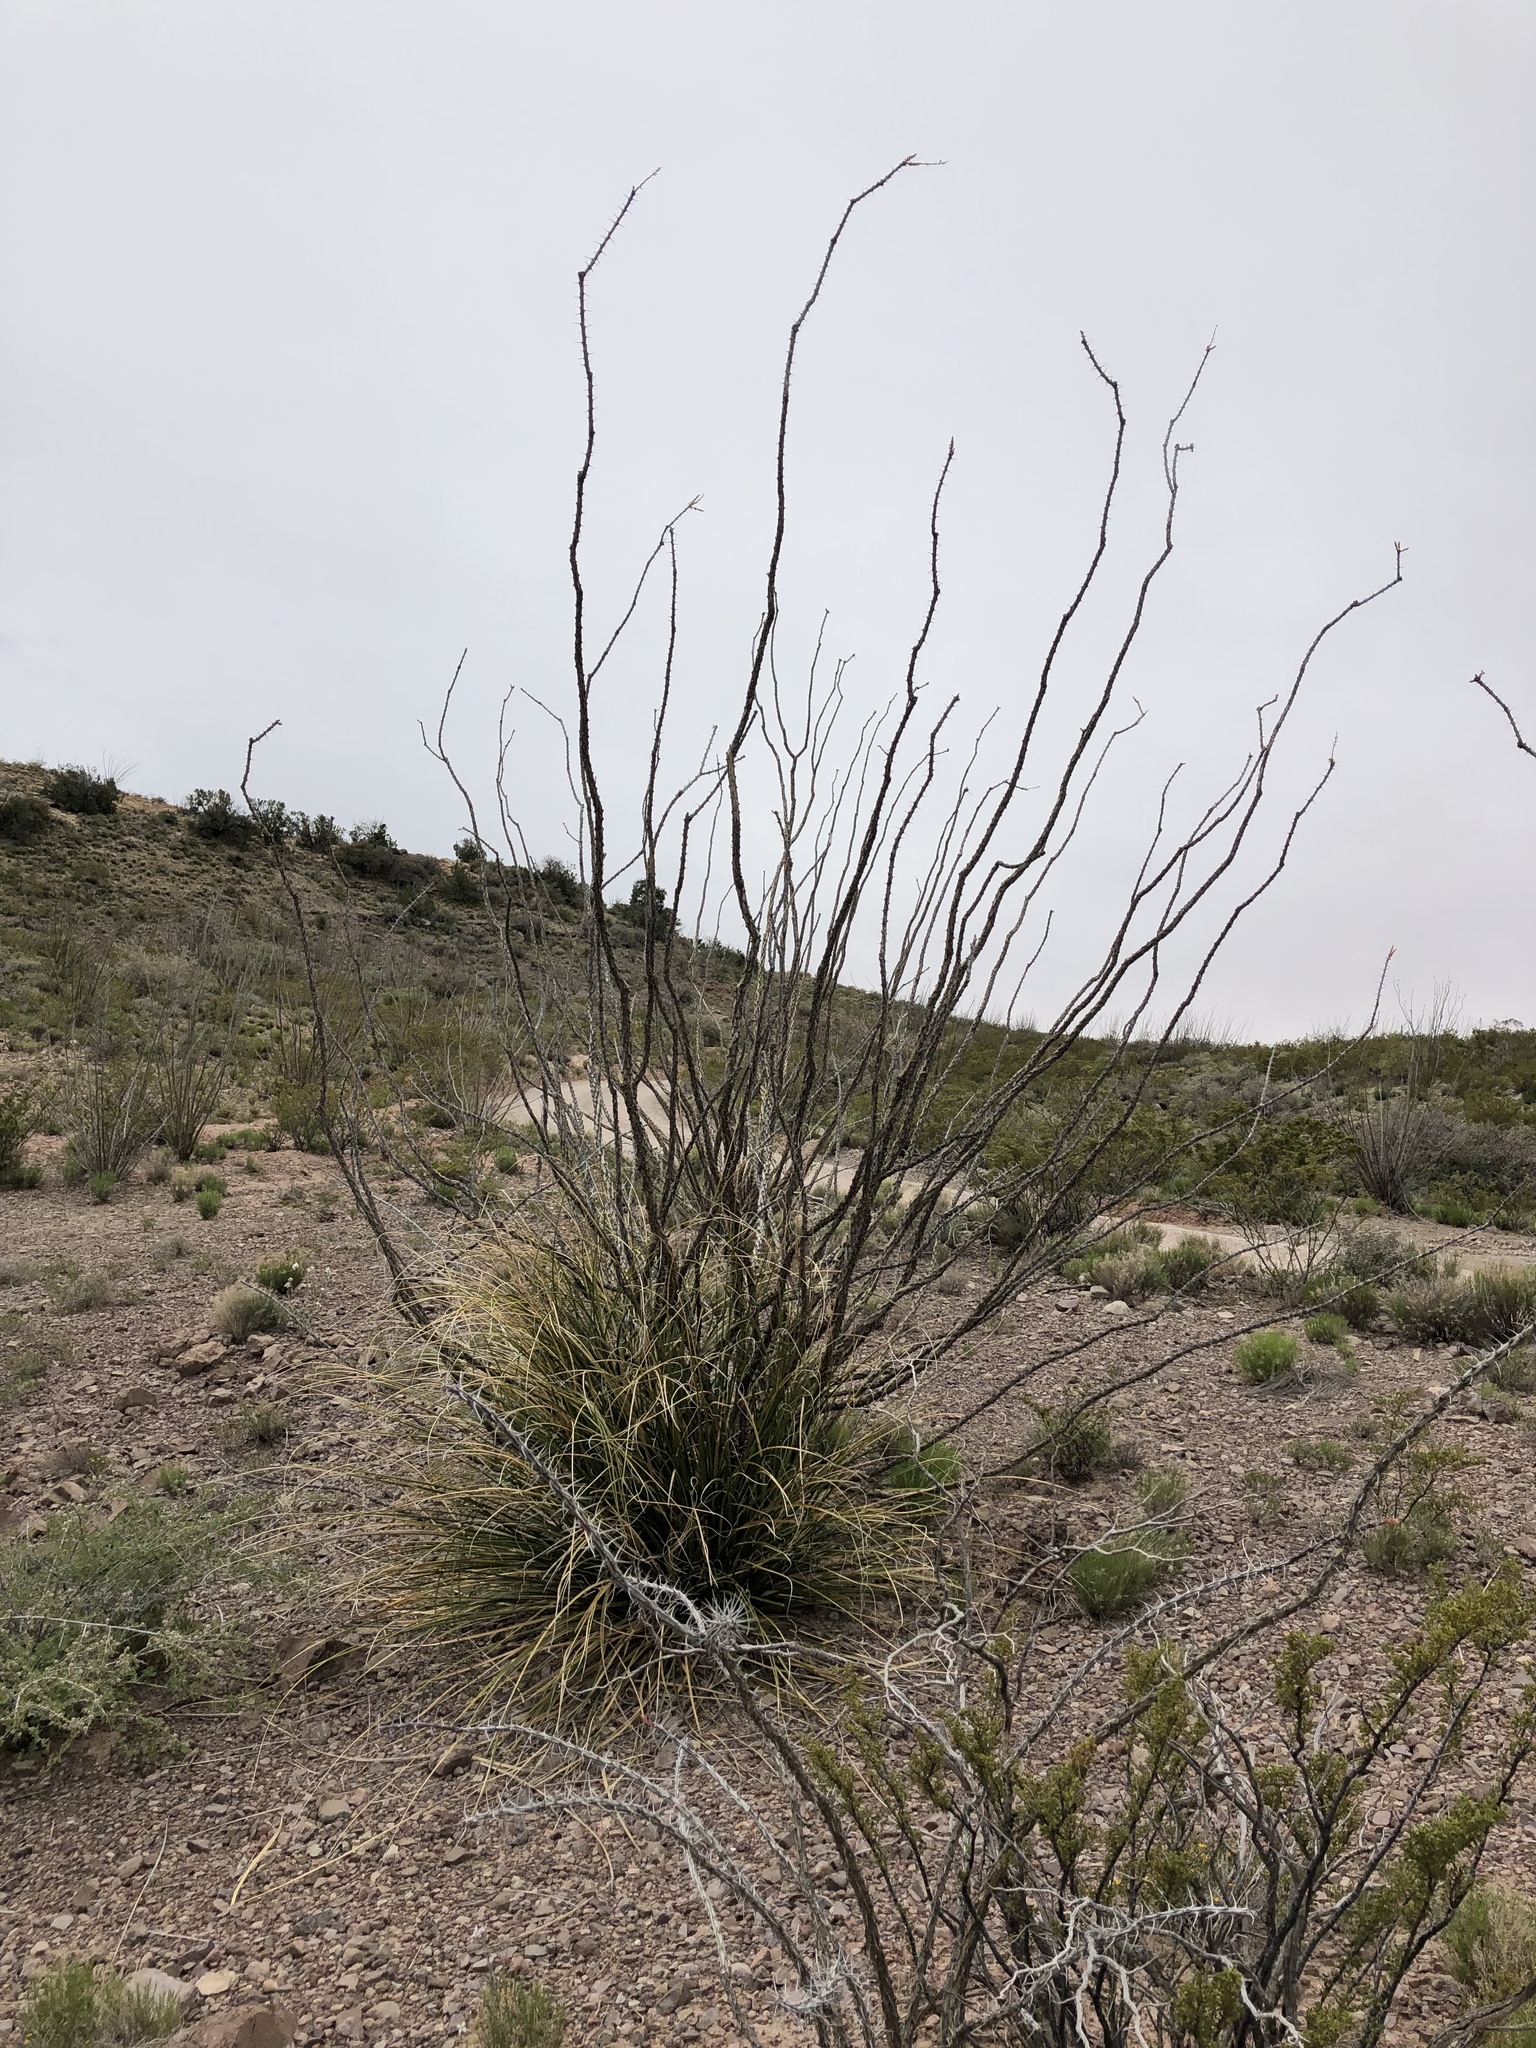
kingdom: Plantae
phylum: Tracheophyta
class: Magnoliopsida
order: Ericales
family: Fouquieriaceae
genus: Fouquieria
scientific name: Fouquieria splendens
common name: Vine-cactus
